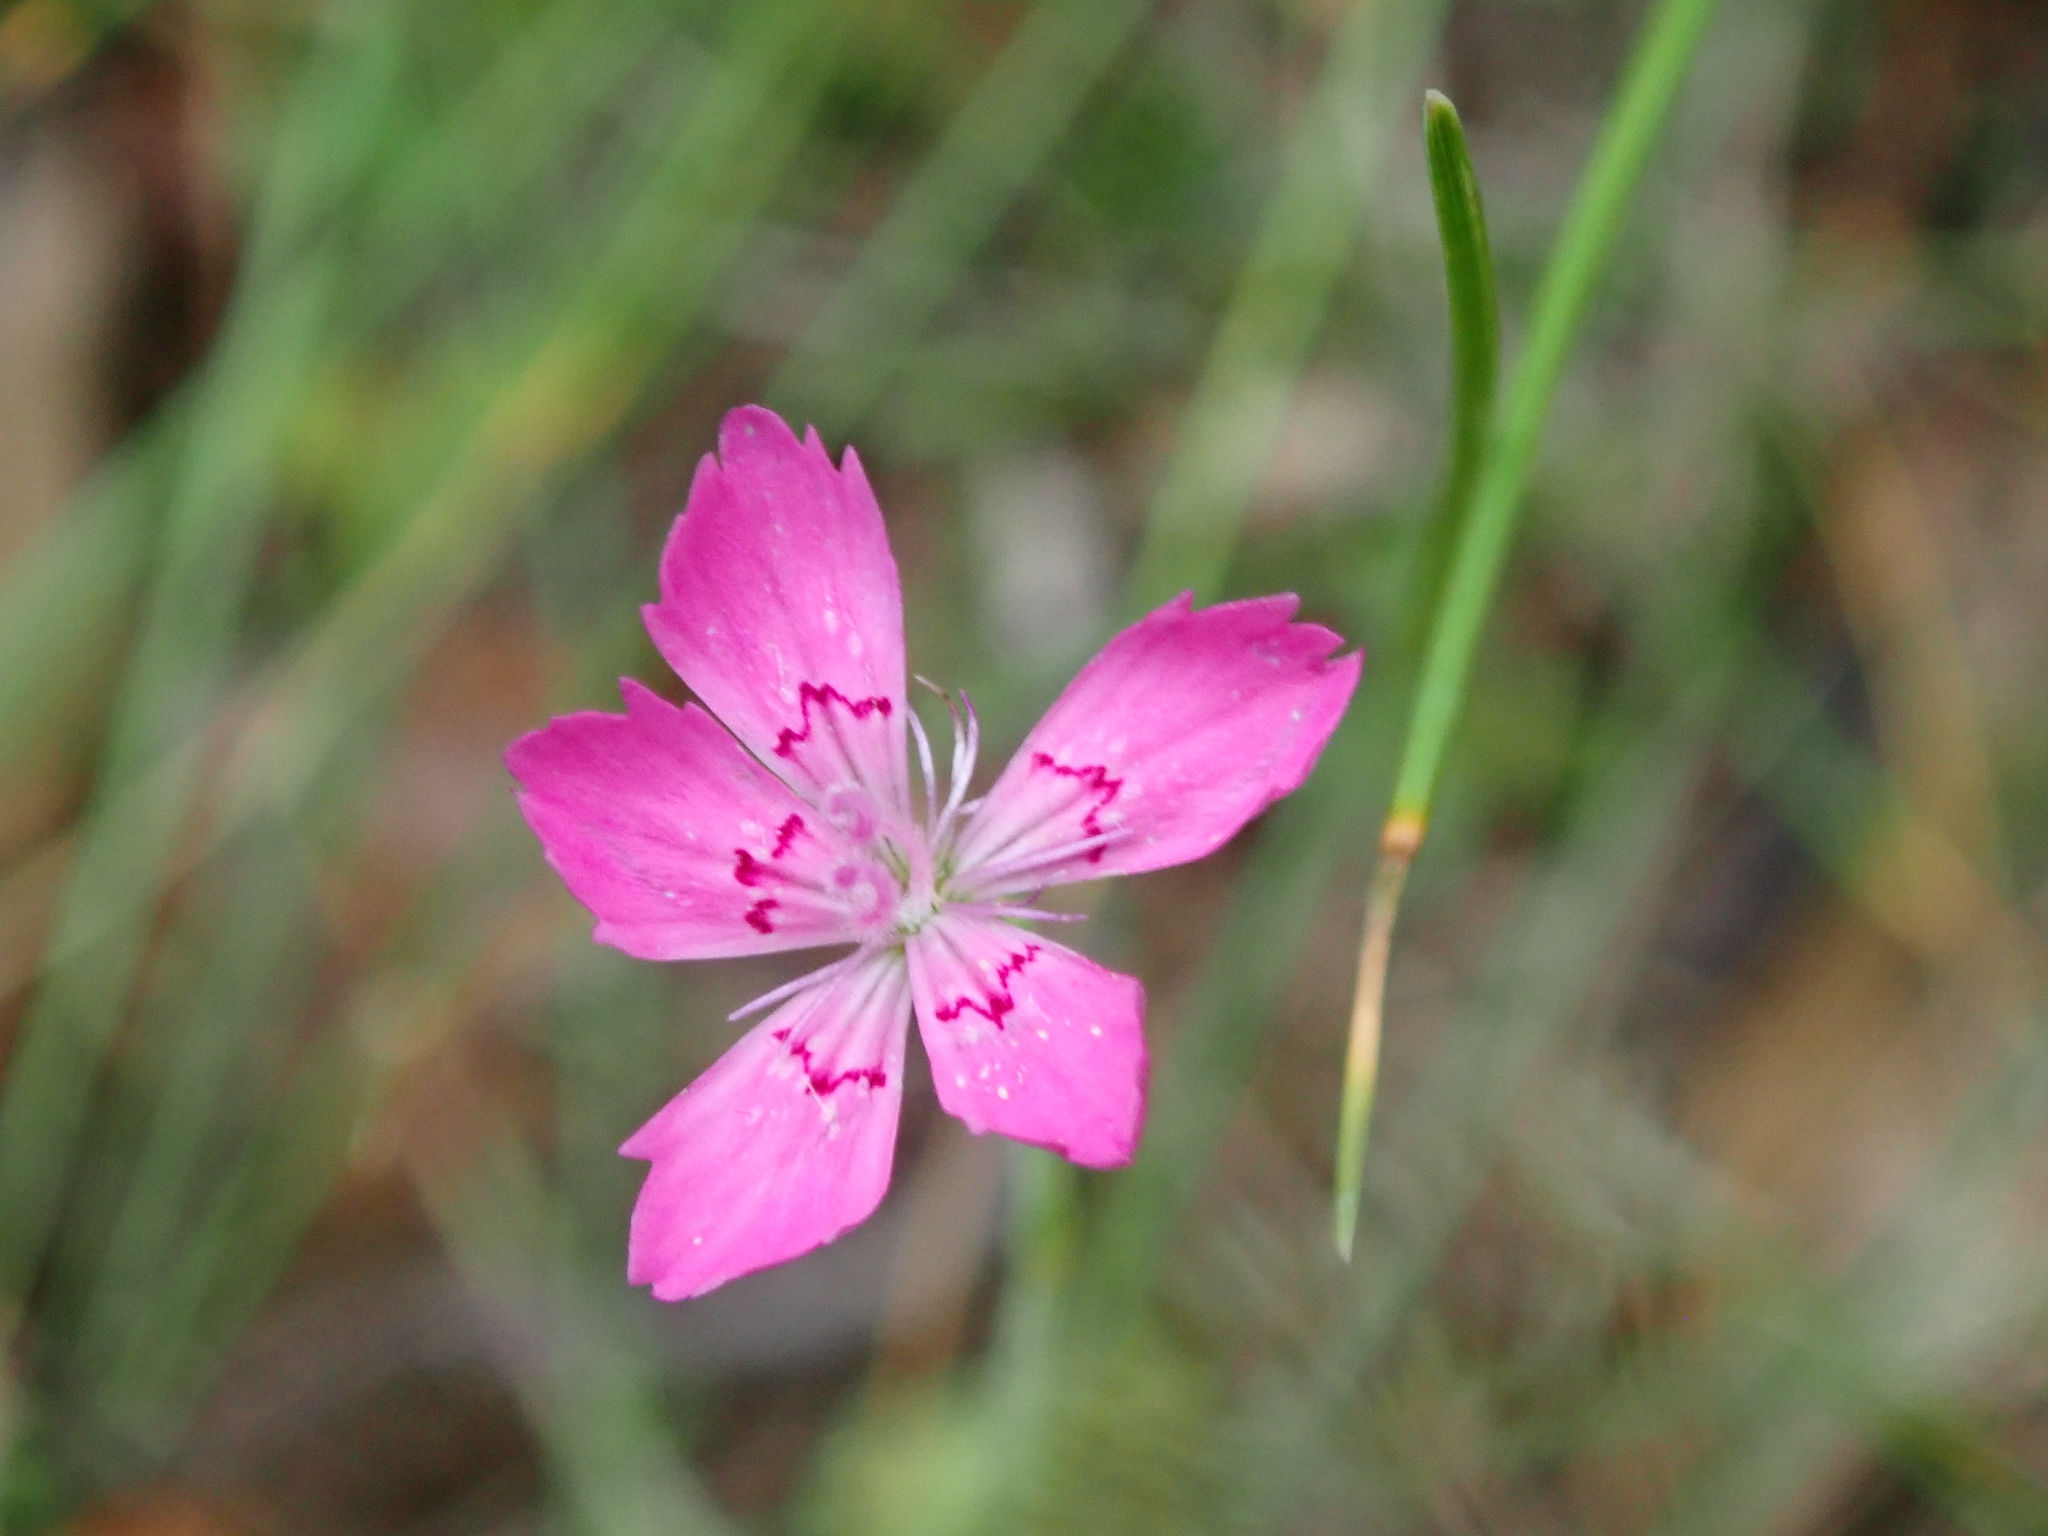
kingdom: Plantae
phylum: Tracheophyta
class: Magnoliopsida
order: Caryophyllales
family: Caryophyllaceae
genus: Dianthus
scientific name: Dianthus deltoides
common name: Maiden pink
